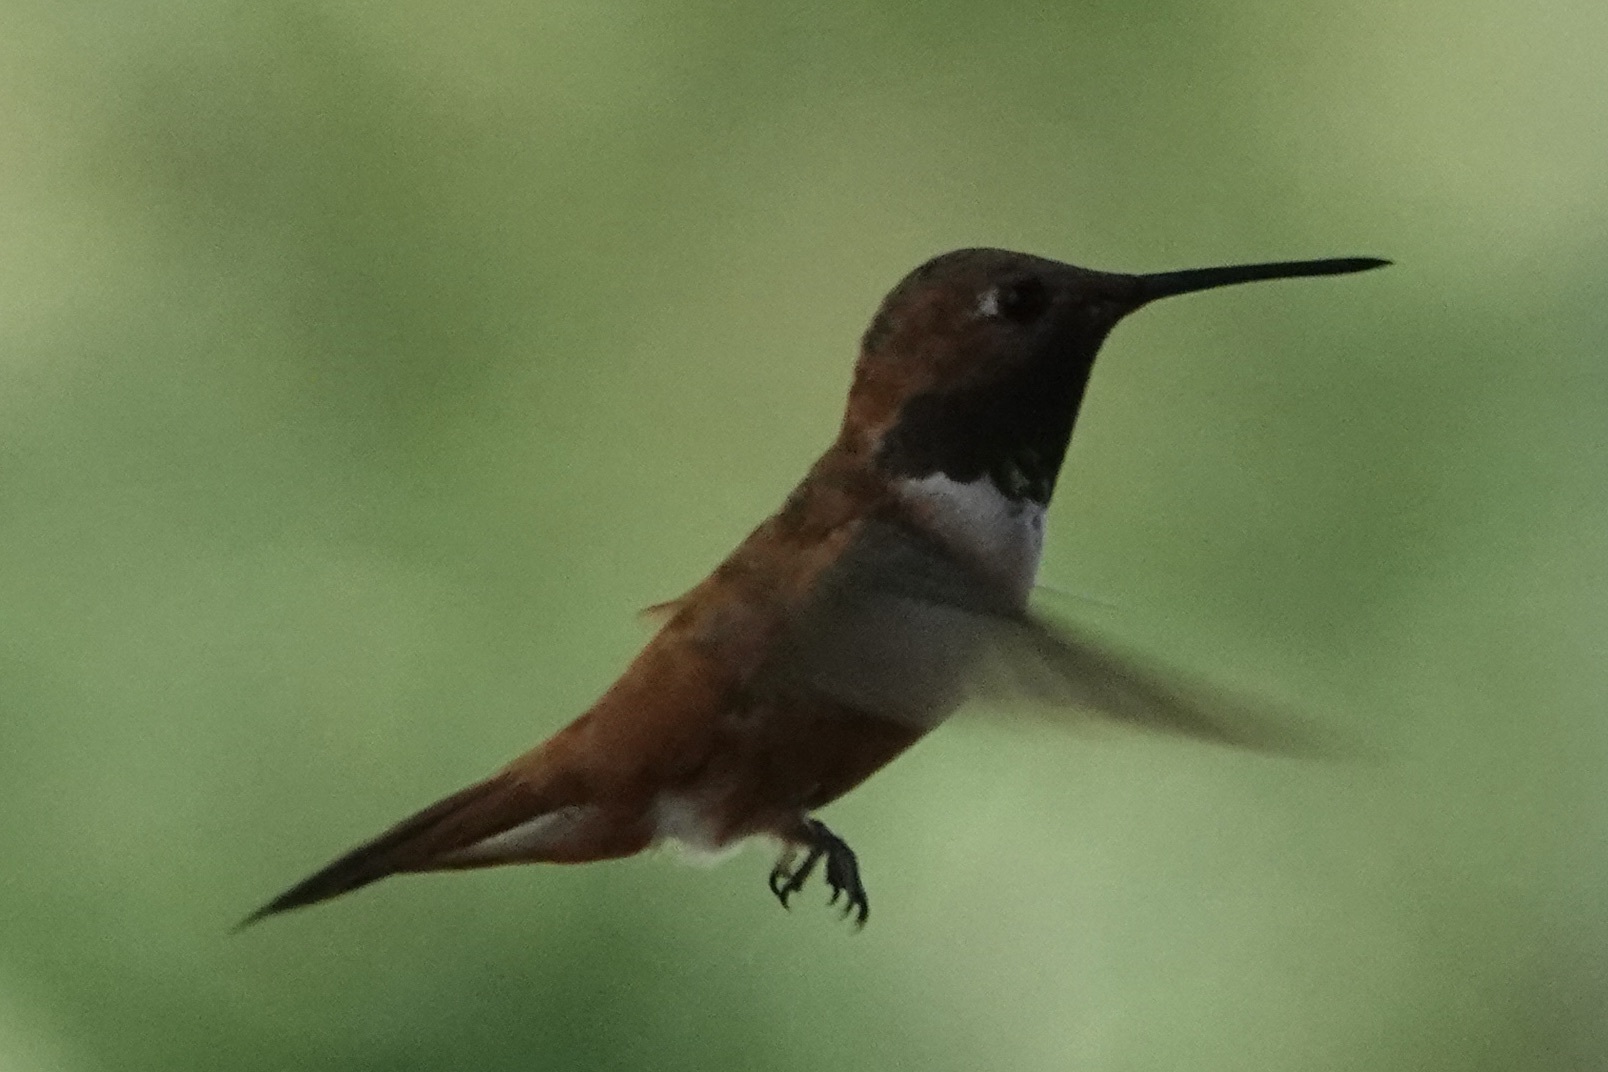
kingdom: Animalia
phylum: Chordata
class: Aves
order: Apodiformes
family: Trochilidae
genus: Selasphorus
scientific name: Selasphorus rufus
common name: Rufous hummingbird
